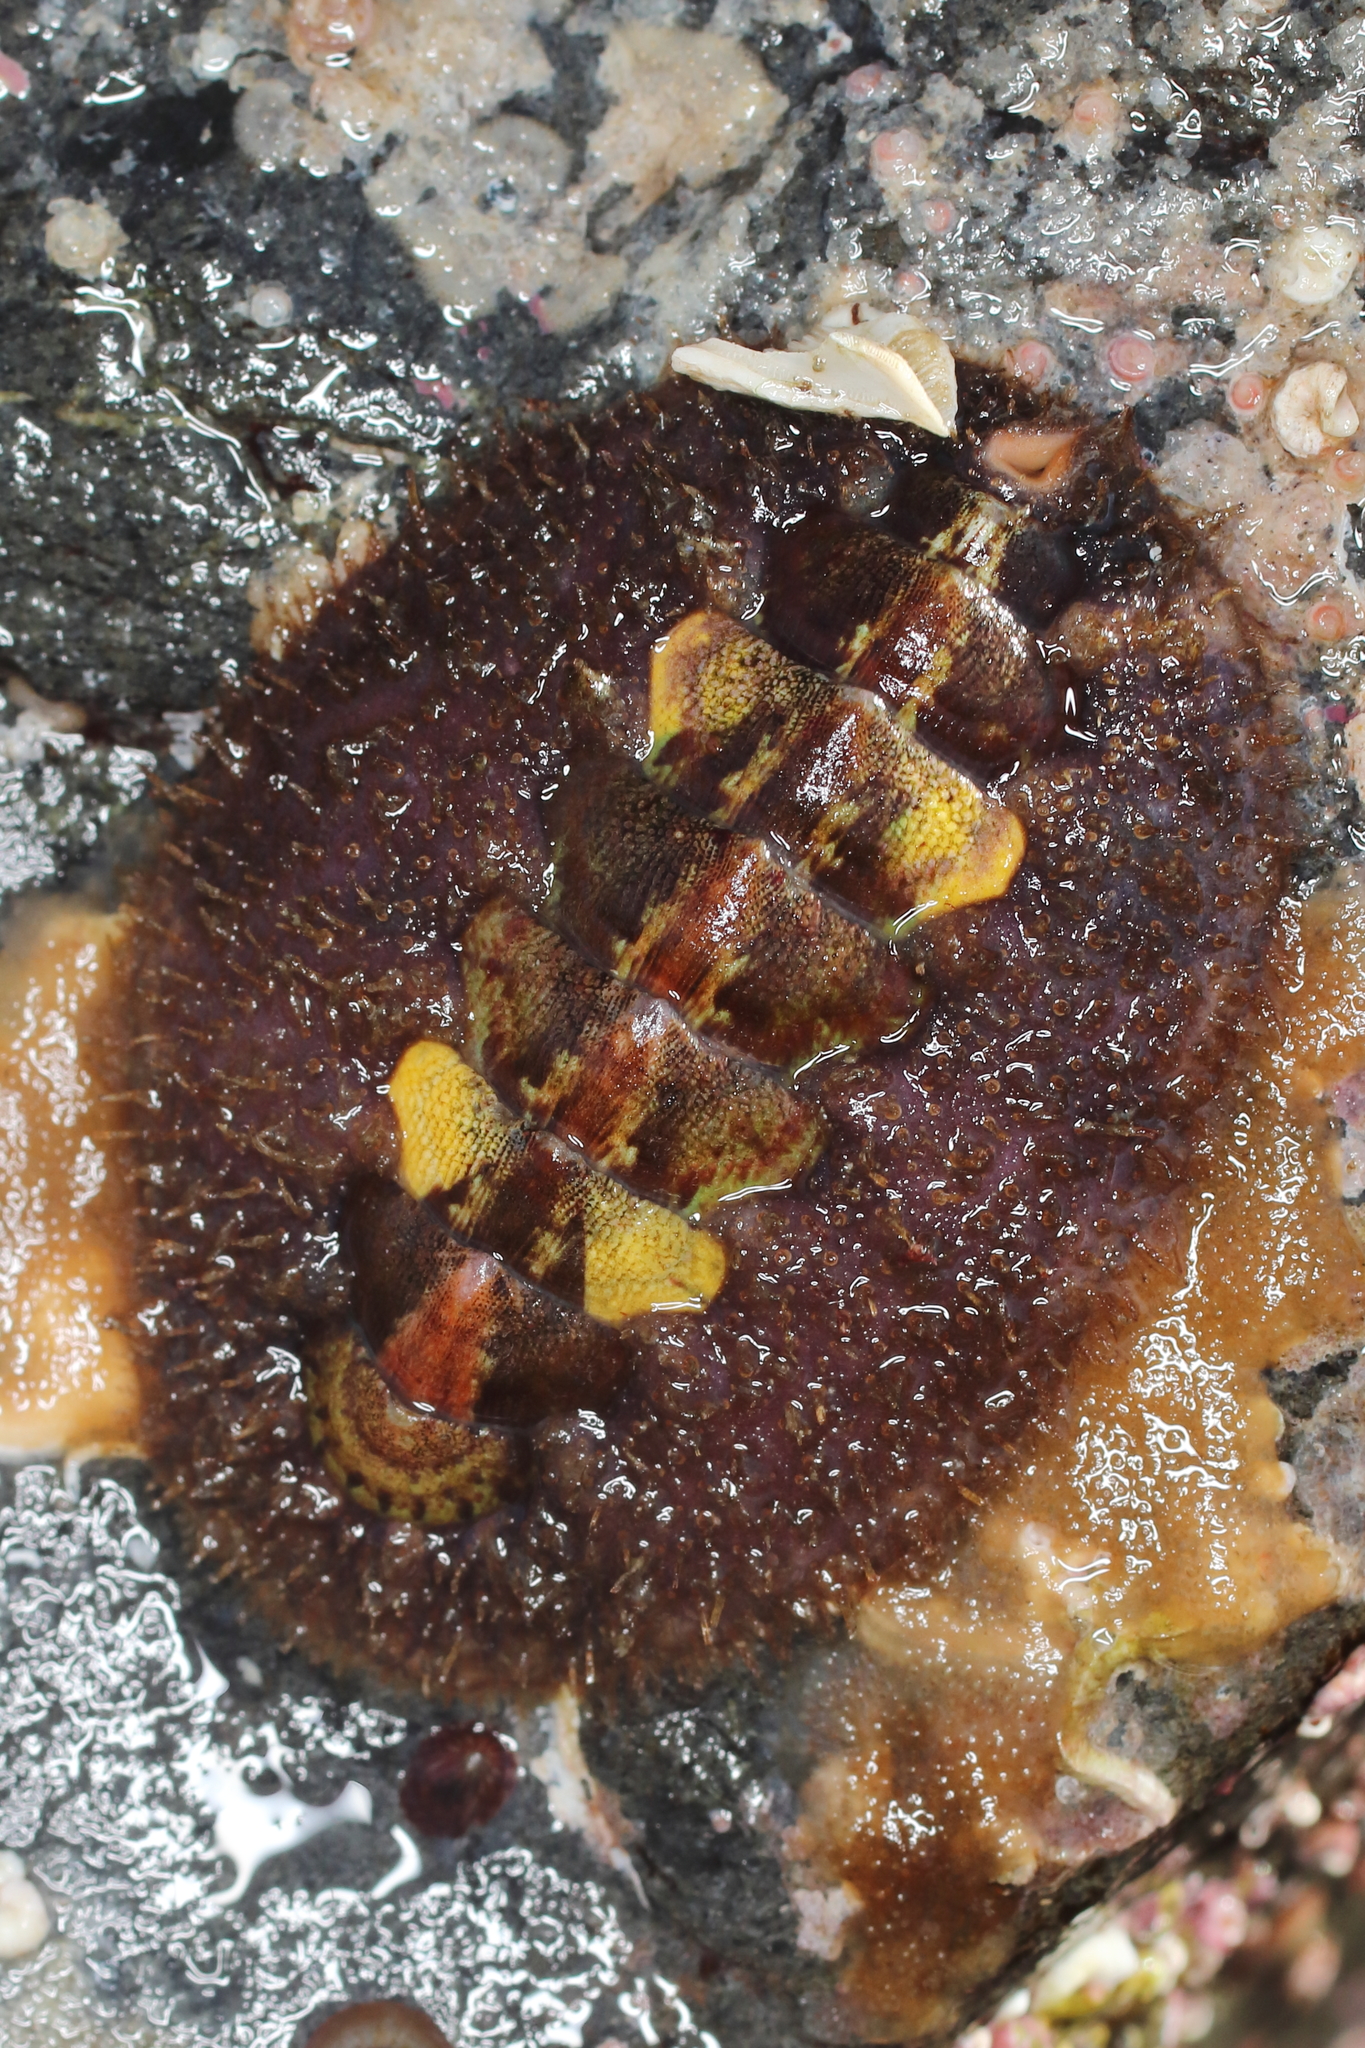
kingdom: Animalia
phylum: Mollusca
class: Polyplacophora
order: Chitonida
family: Mopaliidae
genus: Mopalia
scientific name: Mopalia ciliata
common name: Hairy chiton
